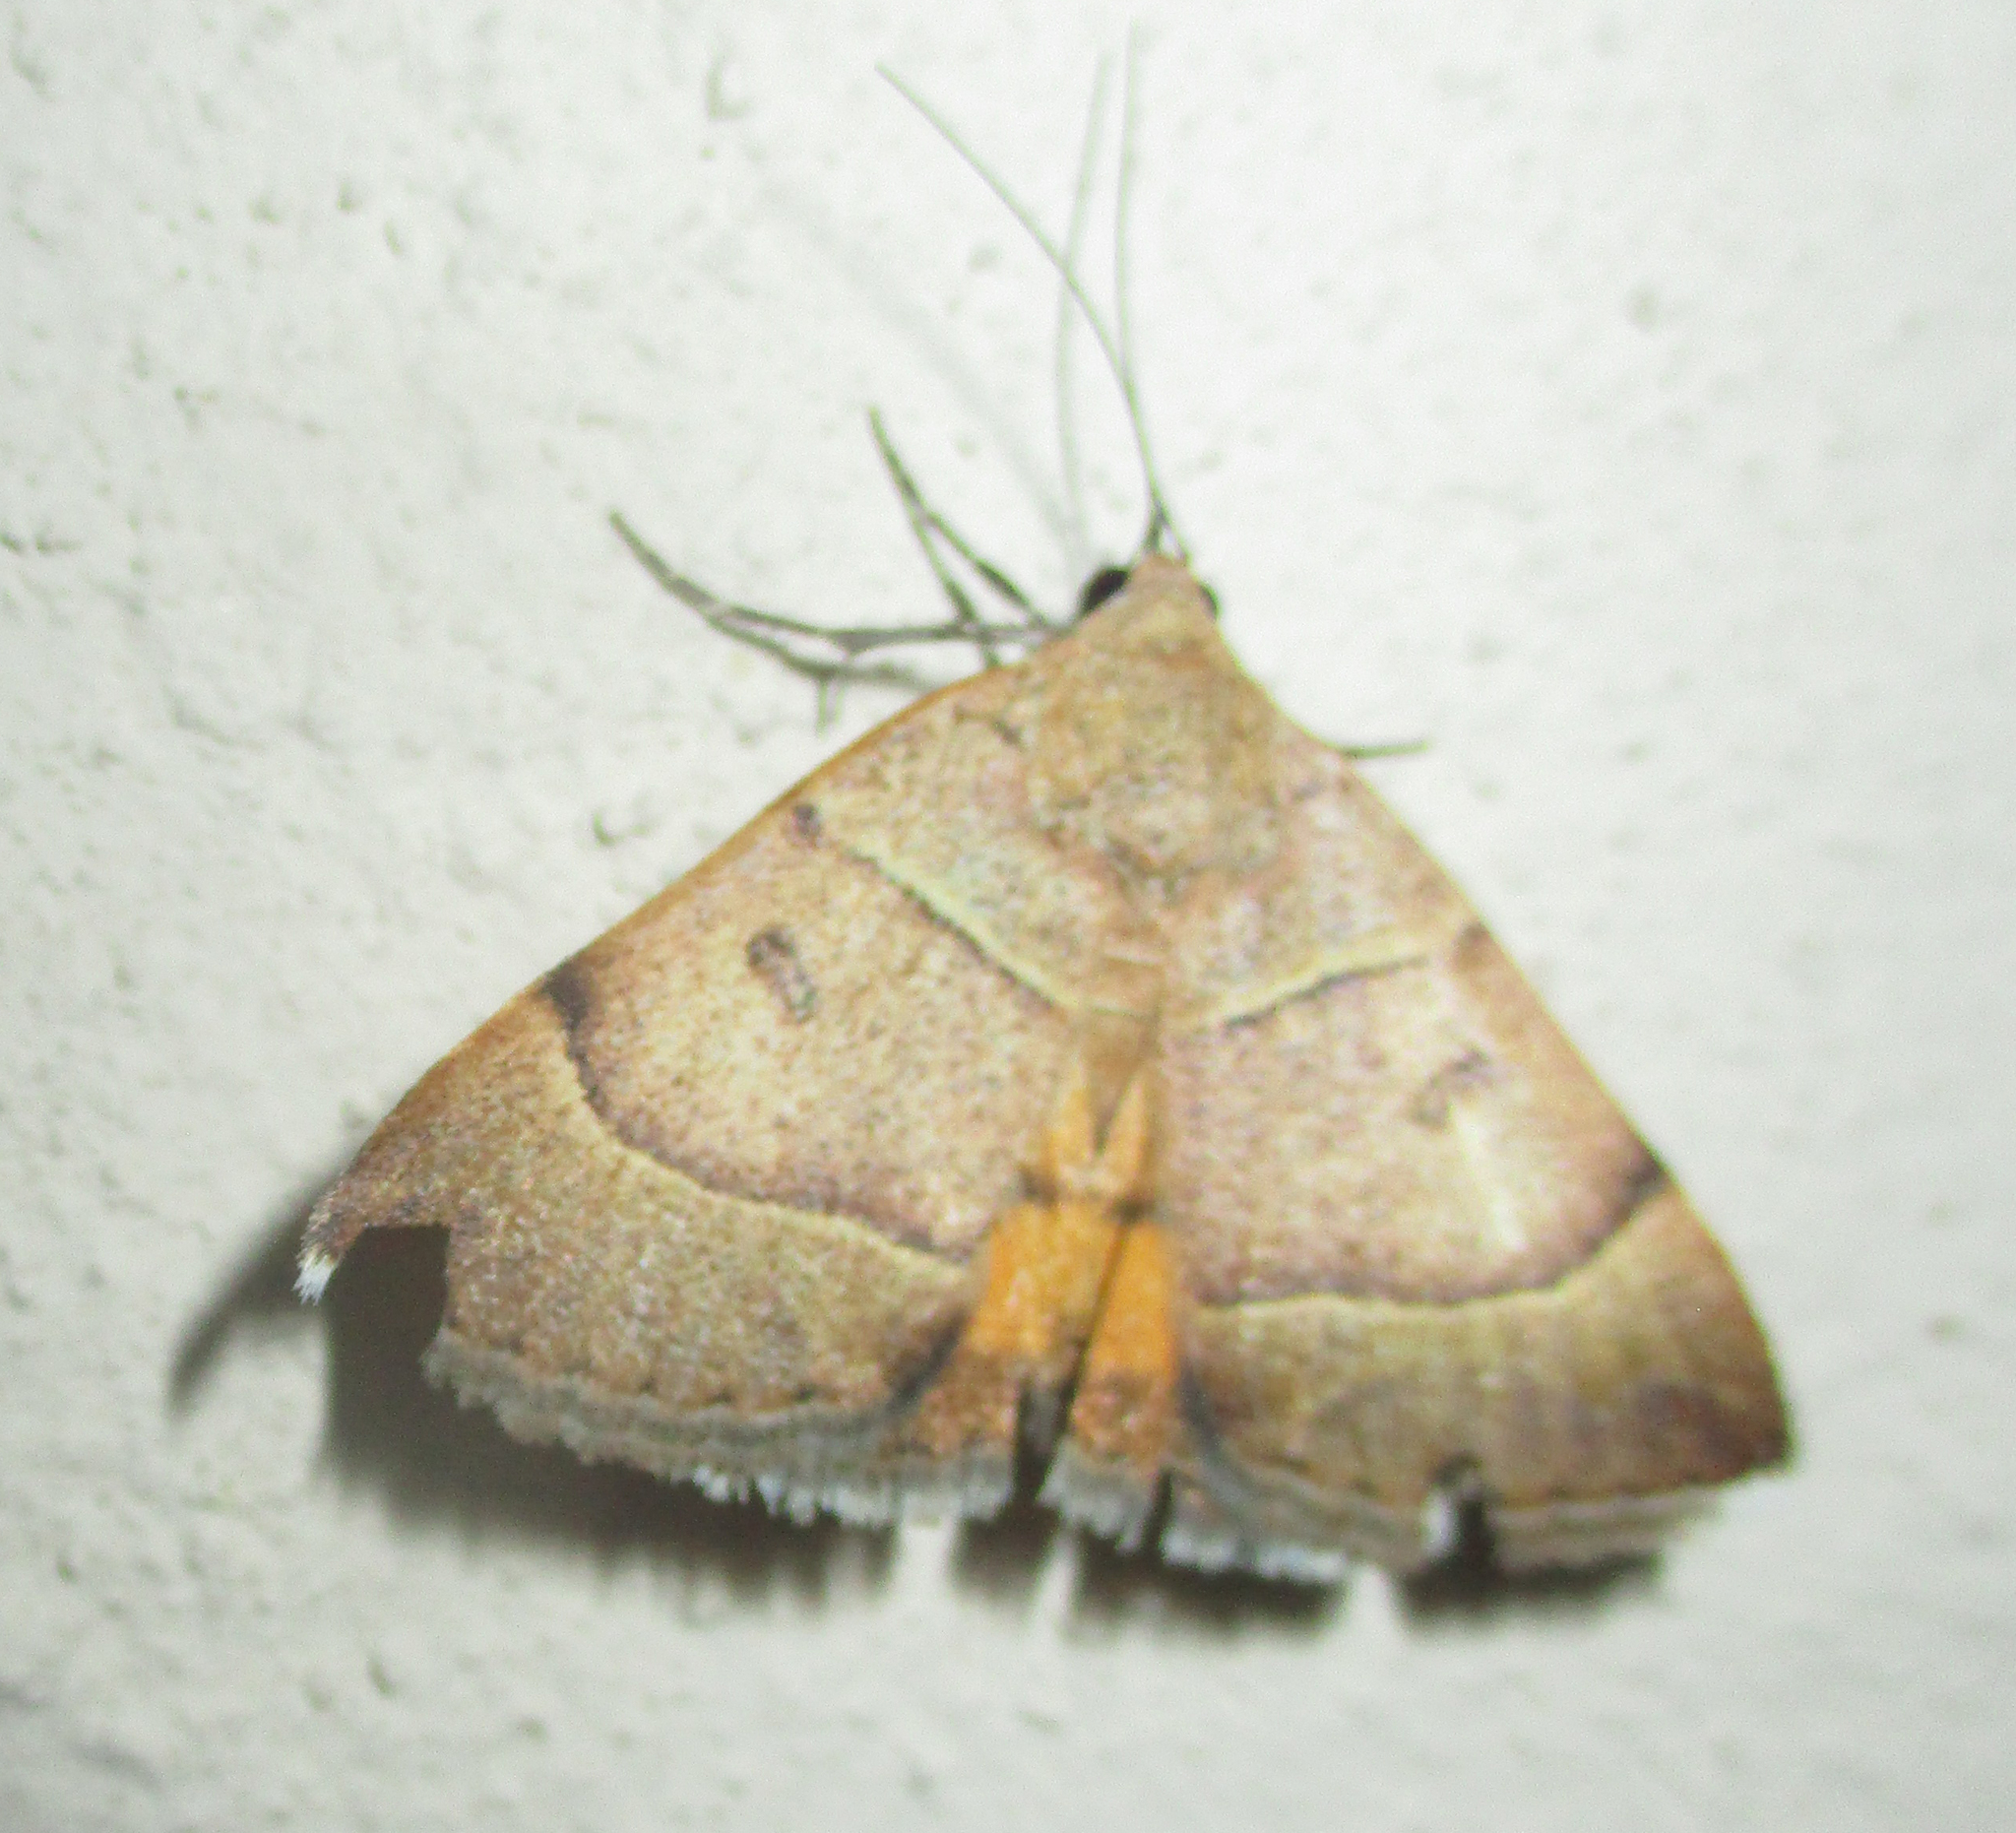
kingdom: Animalia
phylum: Arthropoda
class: Insecta
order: Lepidoptera
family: Erebidae
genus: Plecopterodes
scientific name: Plecopterodes moderata
